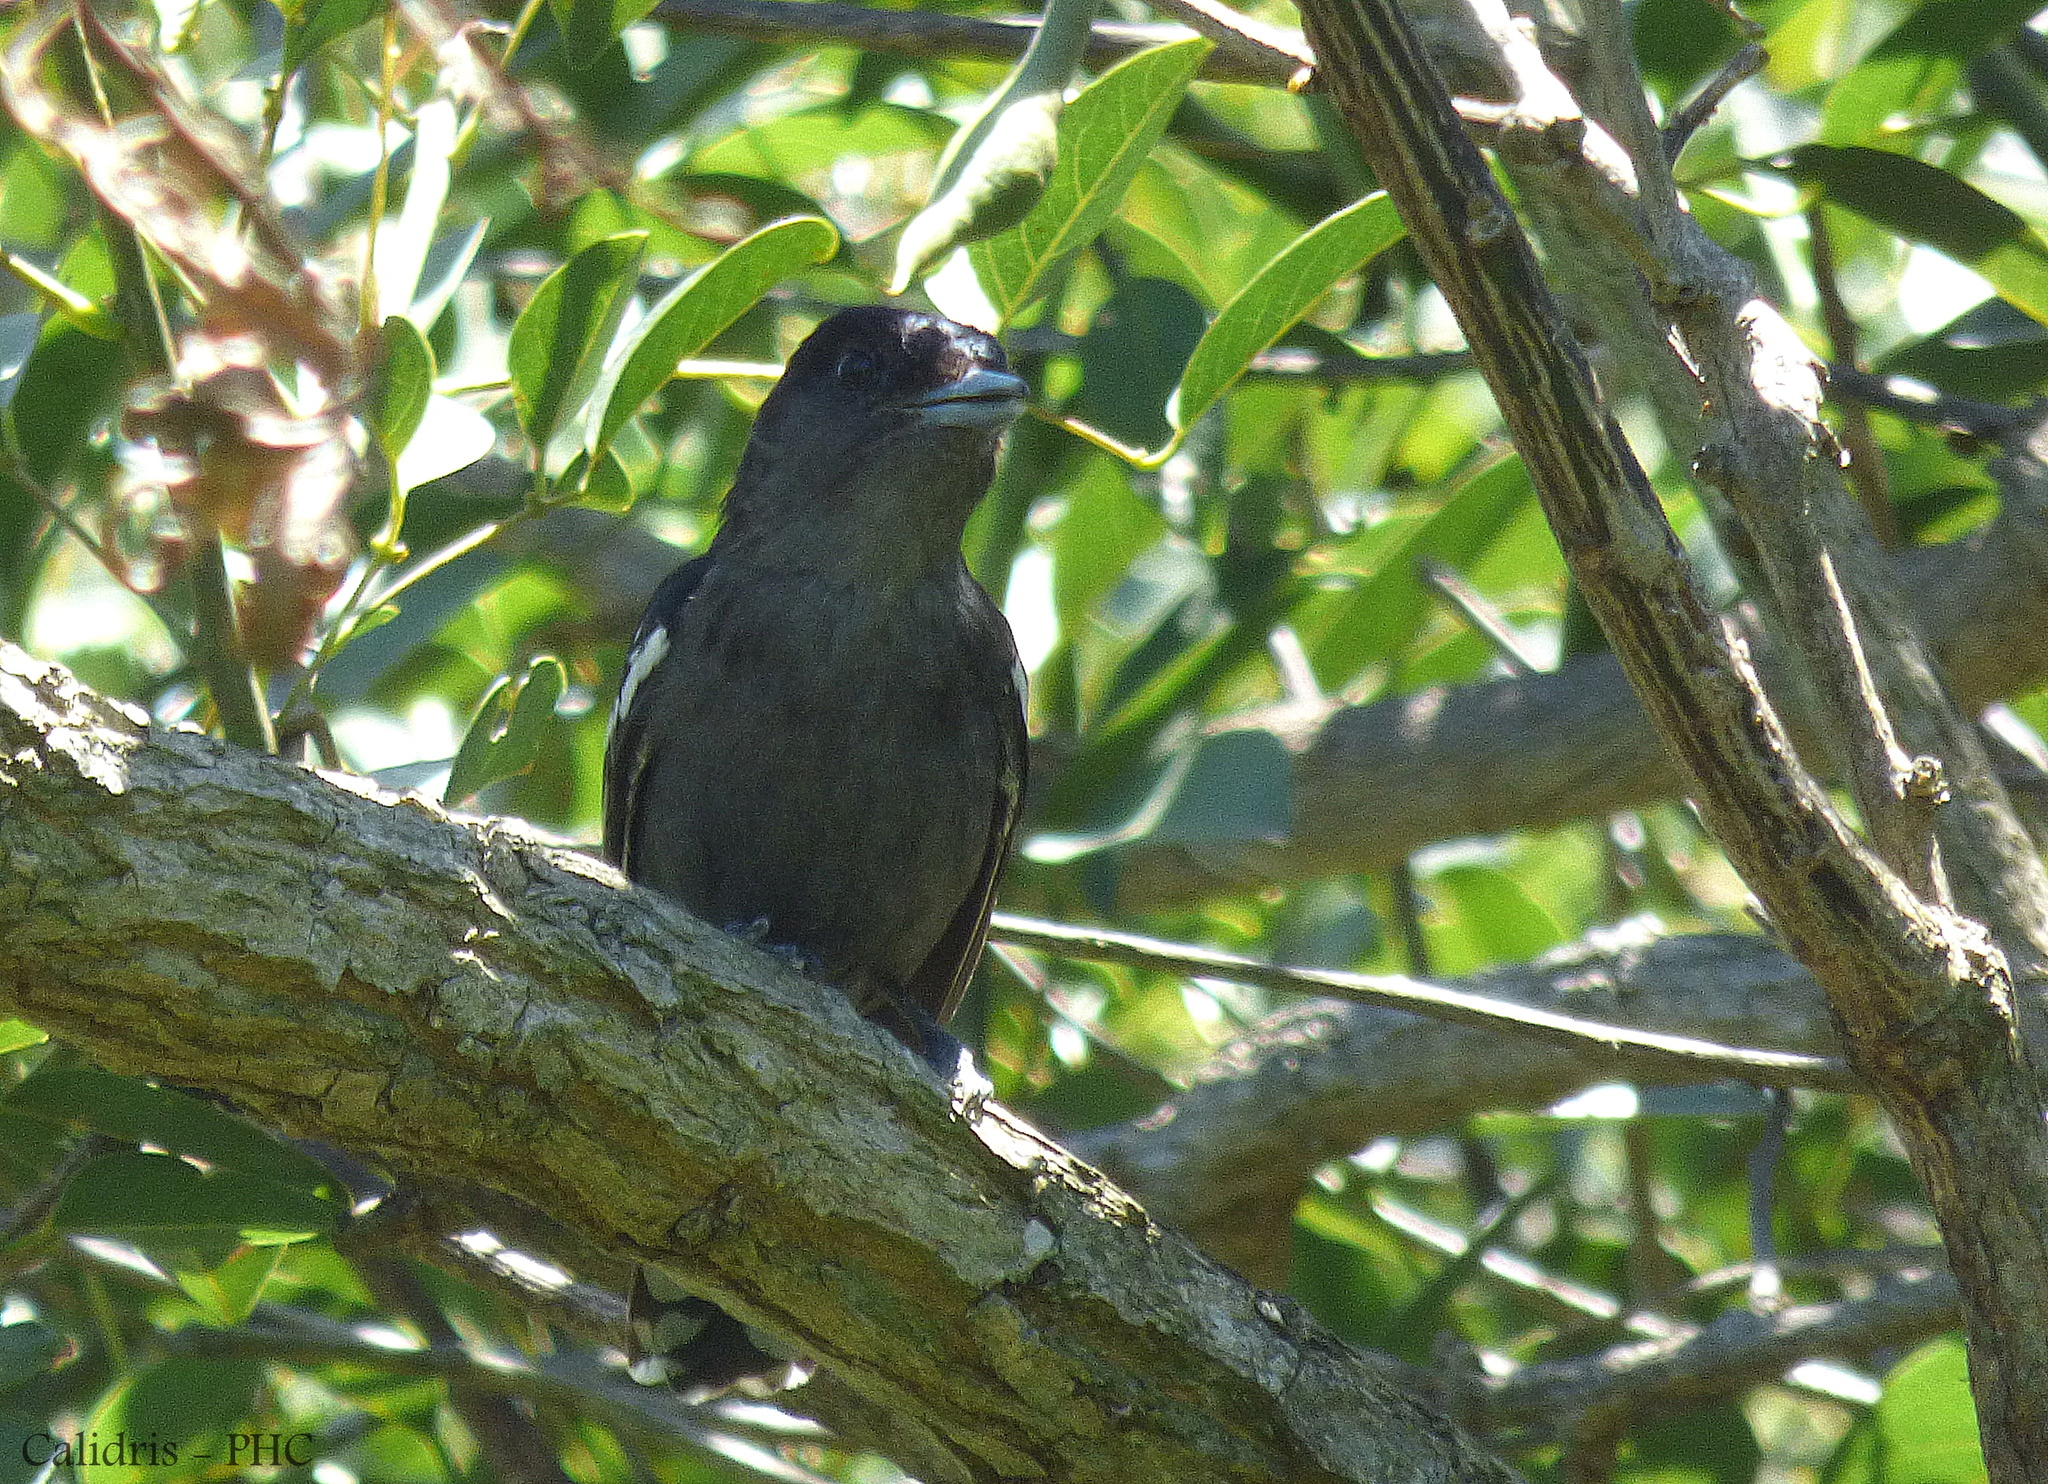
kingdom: Animalia
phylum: Chordata
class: Aves
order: Passeriformes
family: Cotingidae
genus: Pachyramphus
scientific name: Pachyramphus polychopterus
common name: White-winged becard
